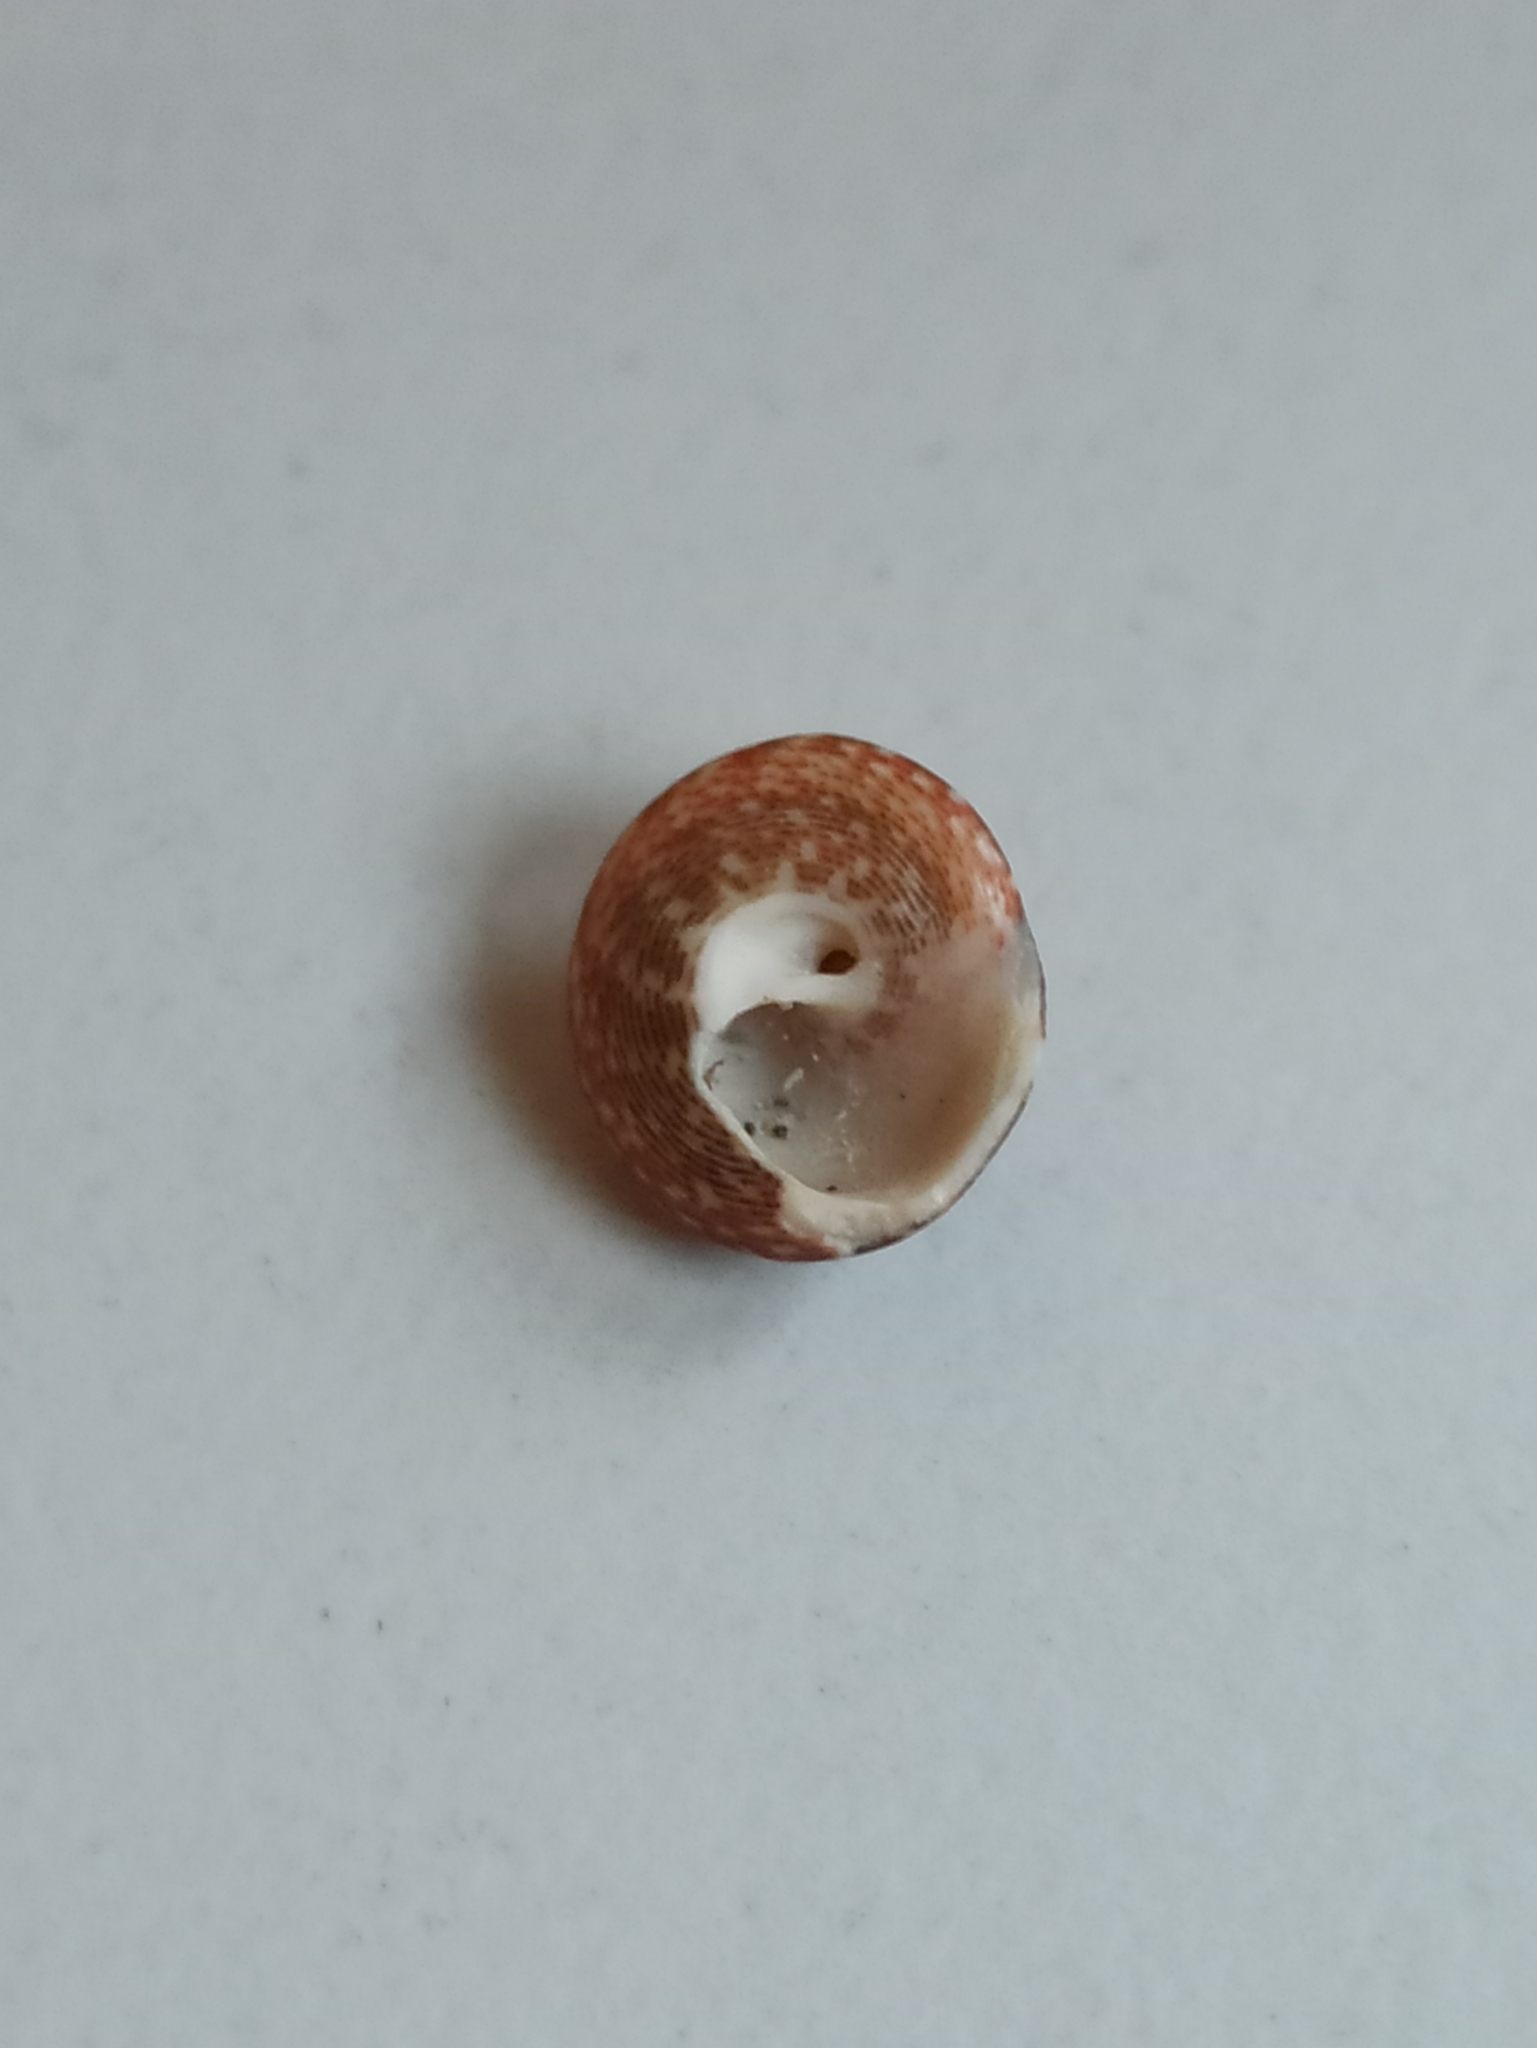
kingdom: Animalia
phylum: Mollusca
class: Gastropoda
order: Trochida
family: Trochidae
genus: Steromphala
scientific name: Steromphala varia
